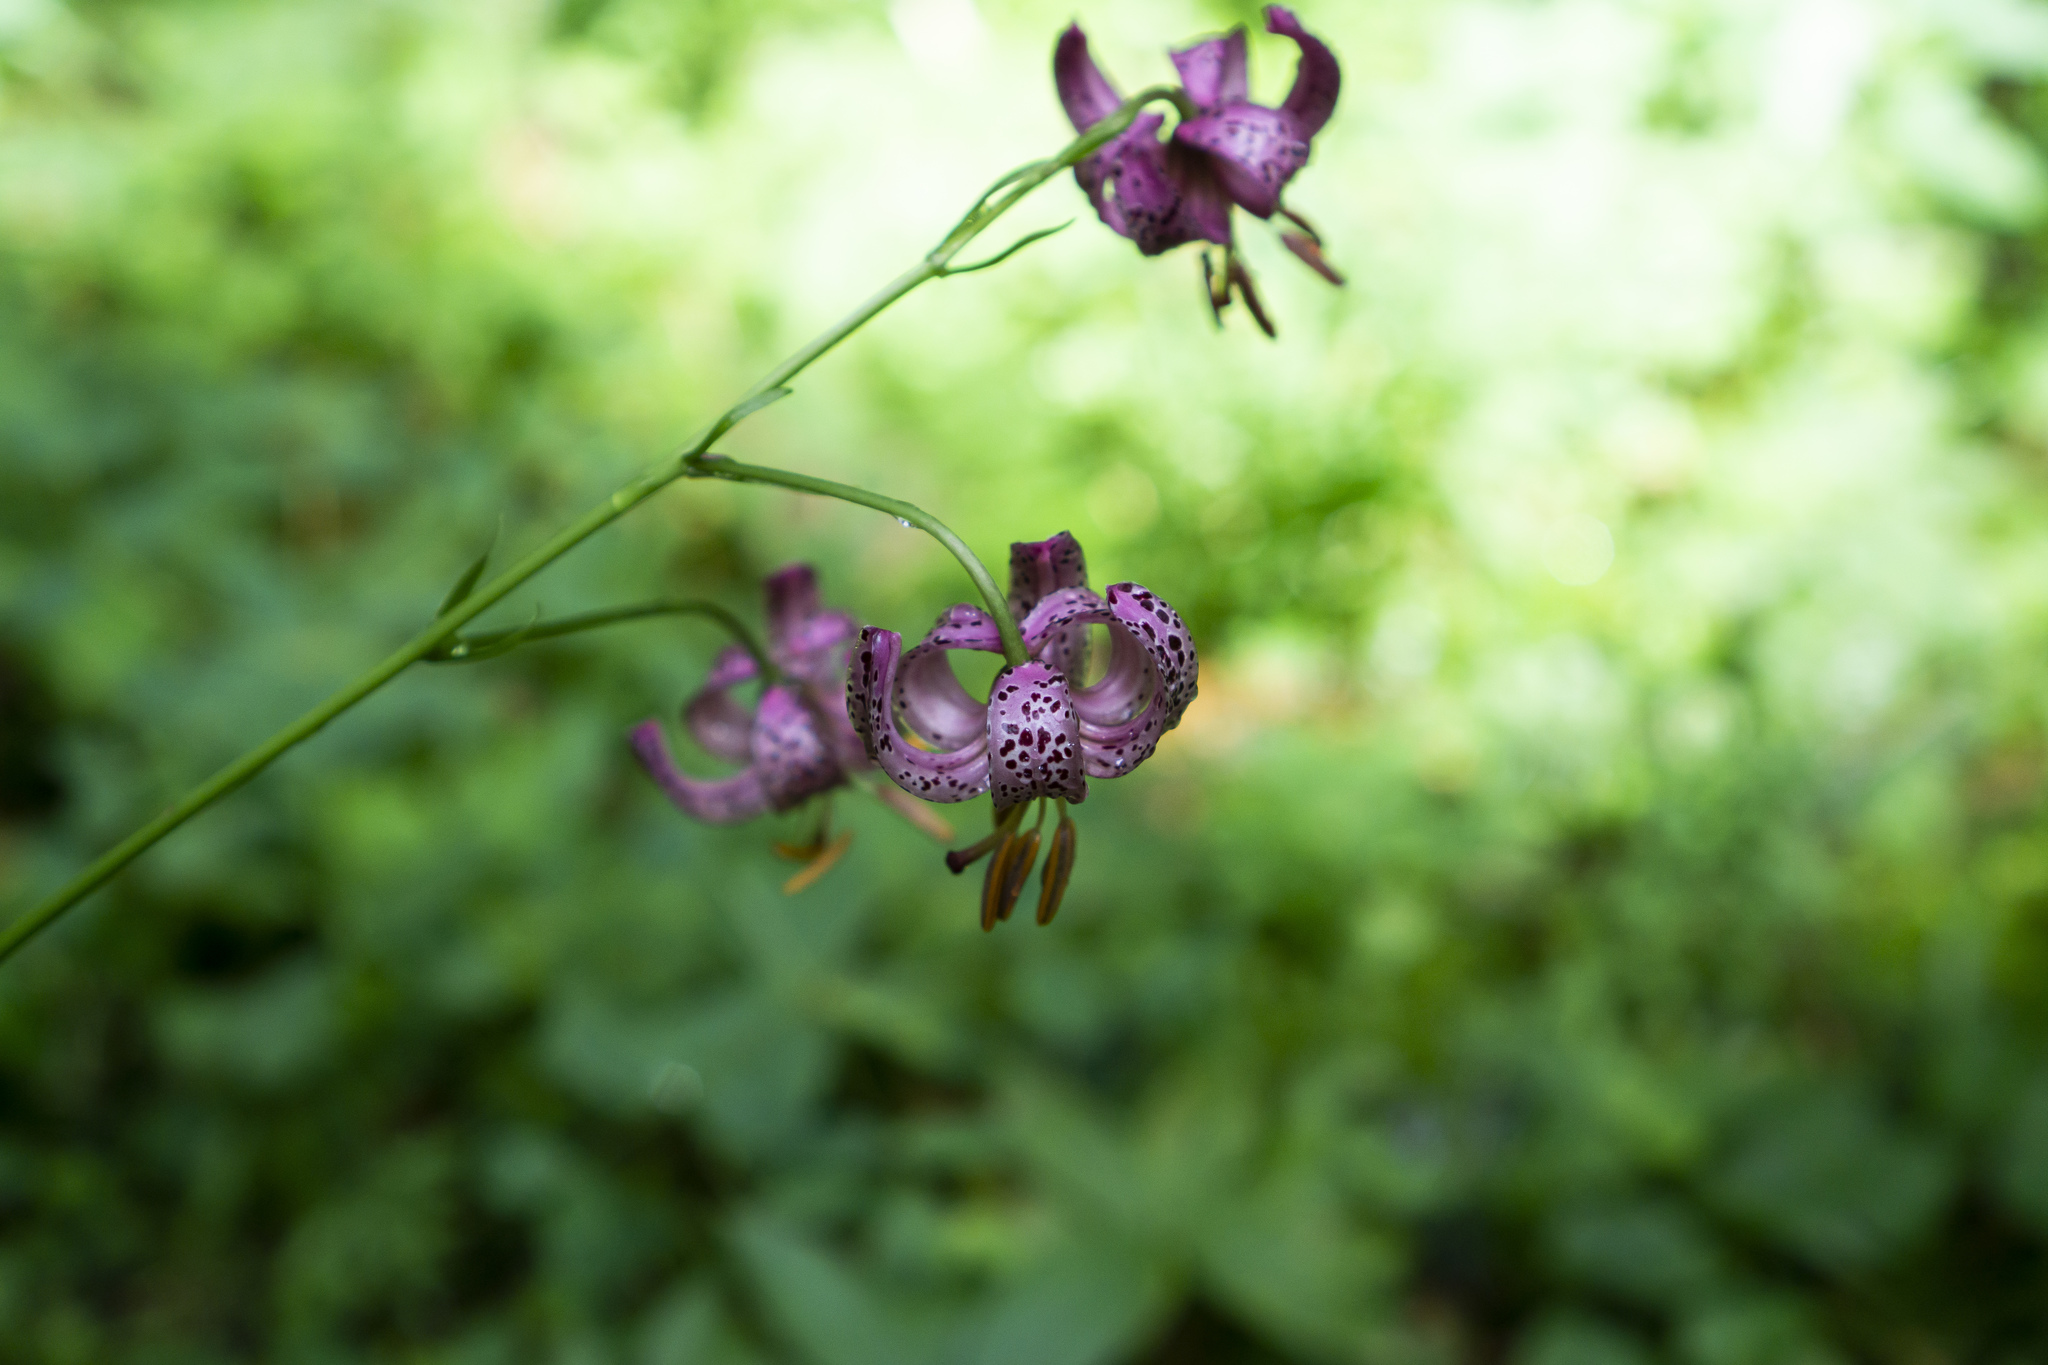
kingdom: Plantae
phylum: Tracheophyta
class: Liliopsida
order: Liliales
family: Liliaceae
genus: Lilium
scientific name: Lilium martagon
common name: Martagon lily
